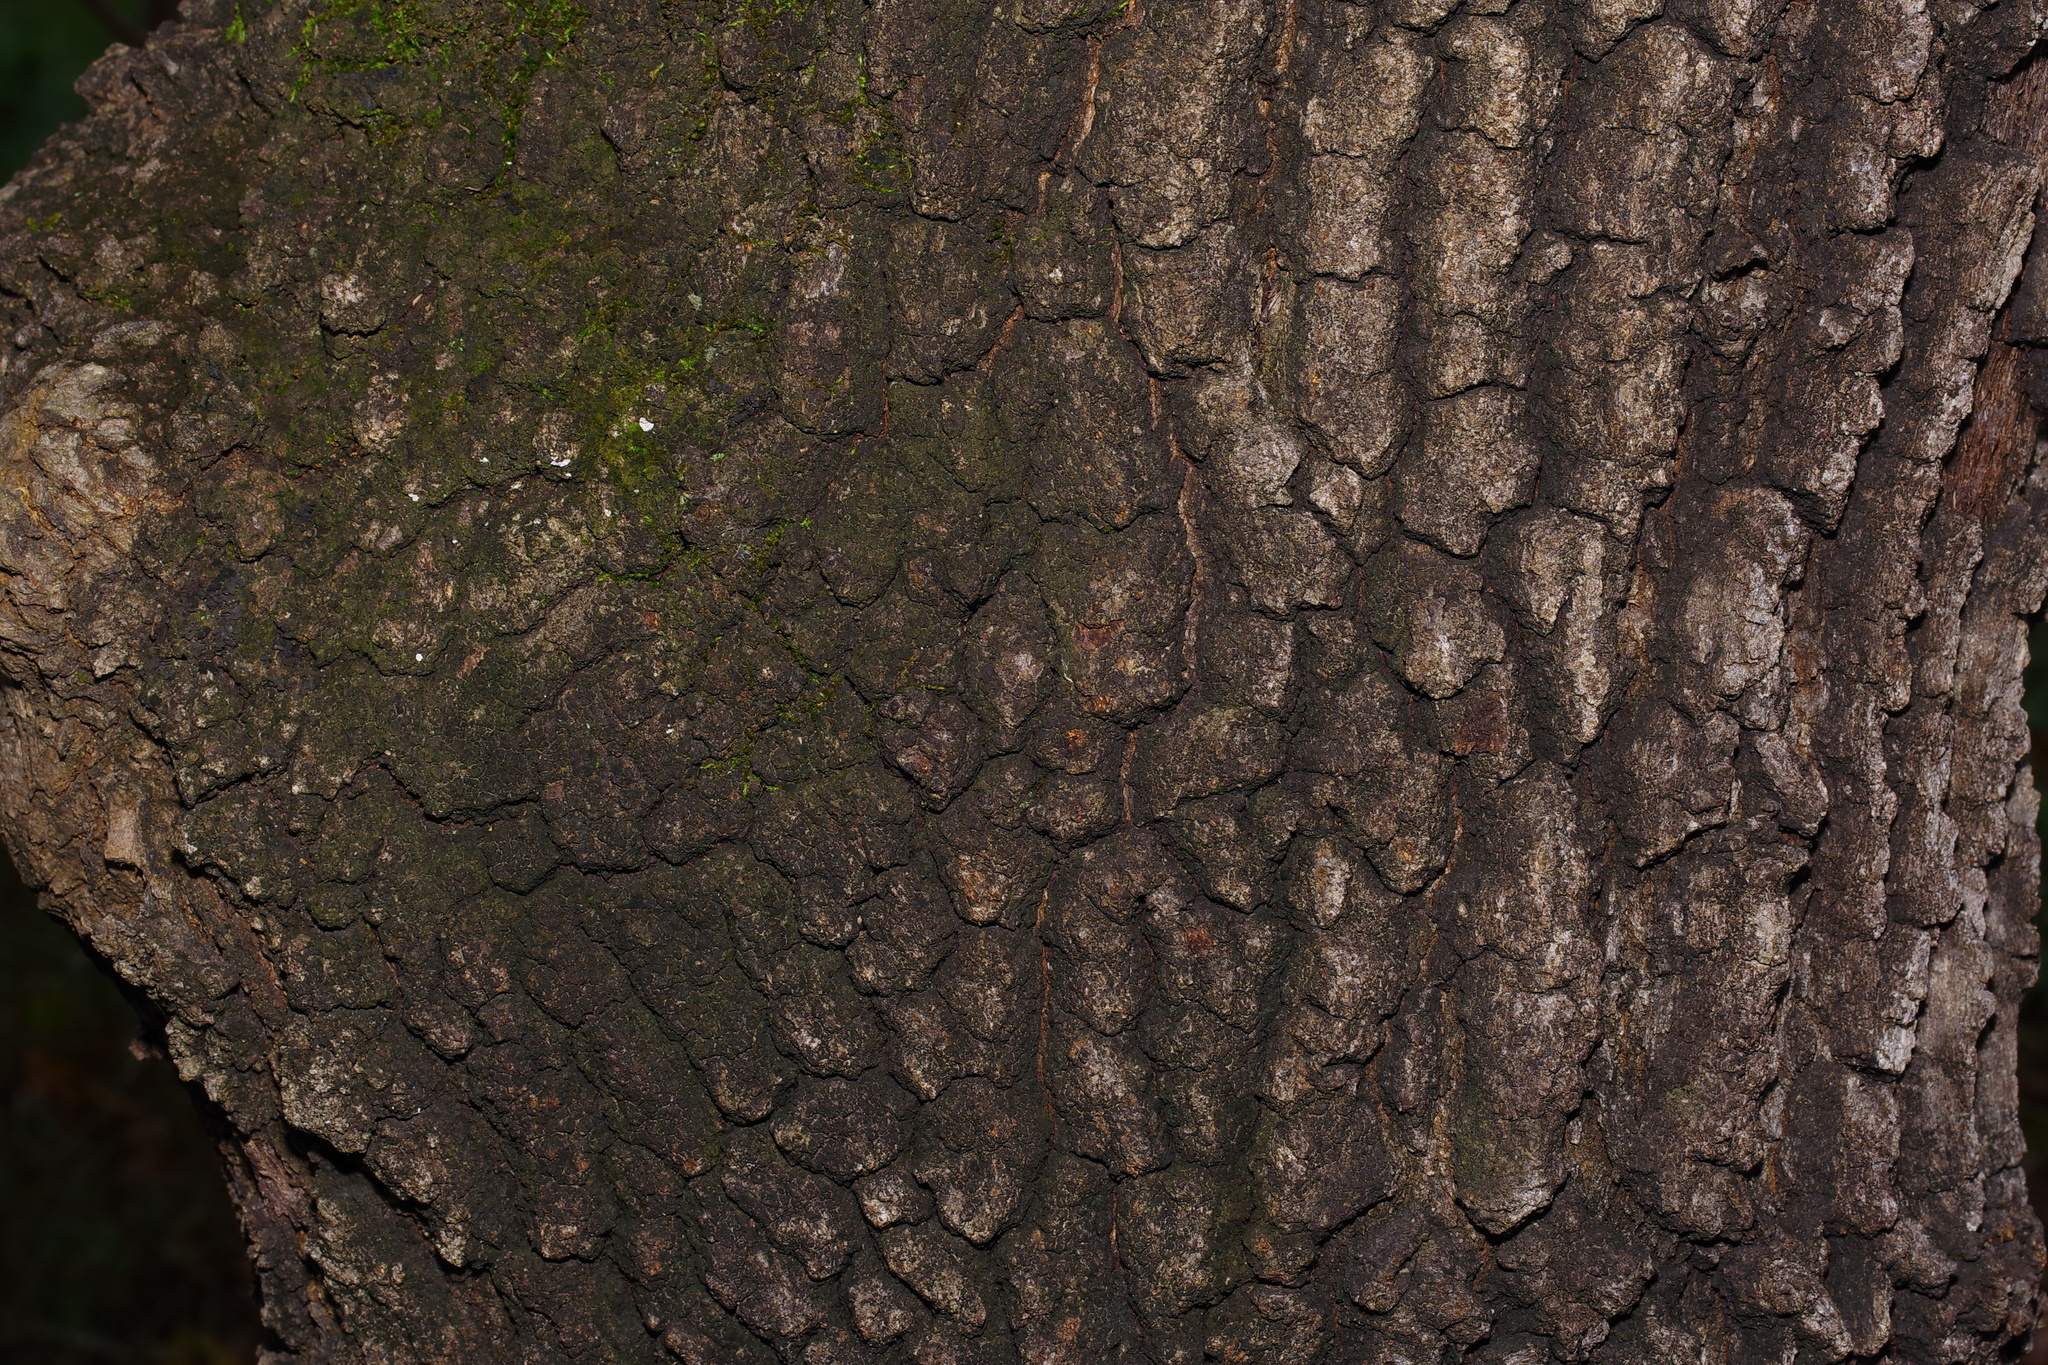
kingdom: Plantae
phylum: Tracheophyta
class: Magnoliopsida
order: Fagales
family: Fagaceae
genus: Quercus
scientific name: Quercus marilandica
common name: Blackjack oak
